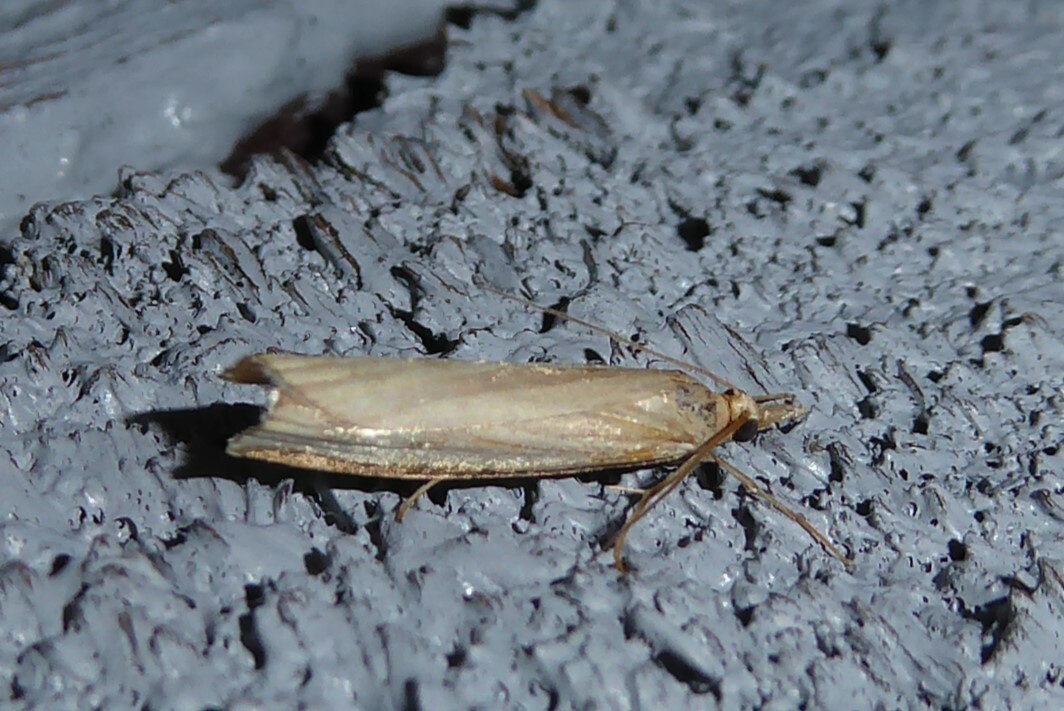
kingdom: Animalia
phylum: Arthropoda
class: Insecta
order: Lepidoptera
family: Crambidae
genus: Orocrambus
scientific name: Orocrambus vittellus
